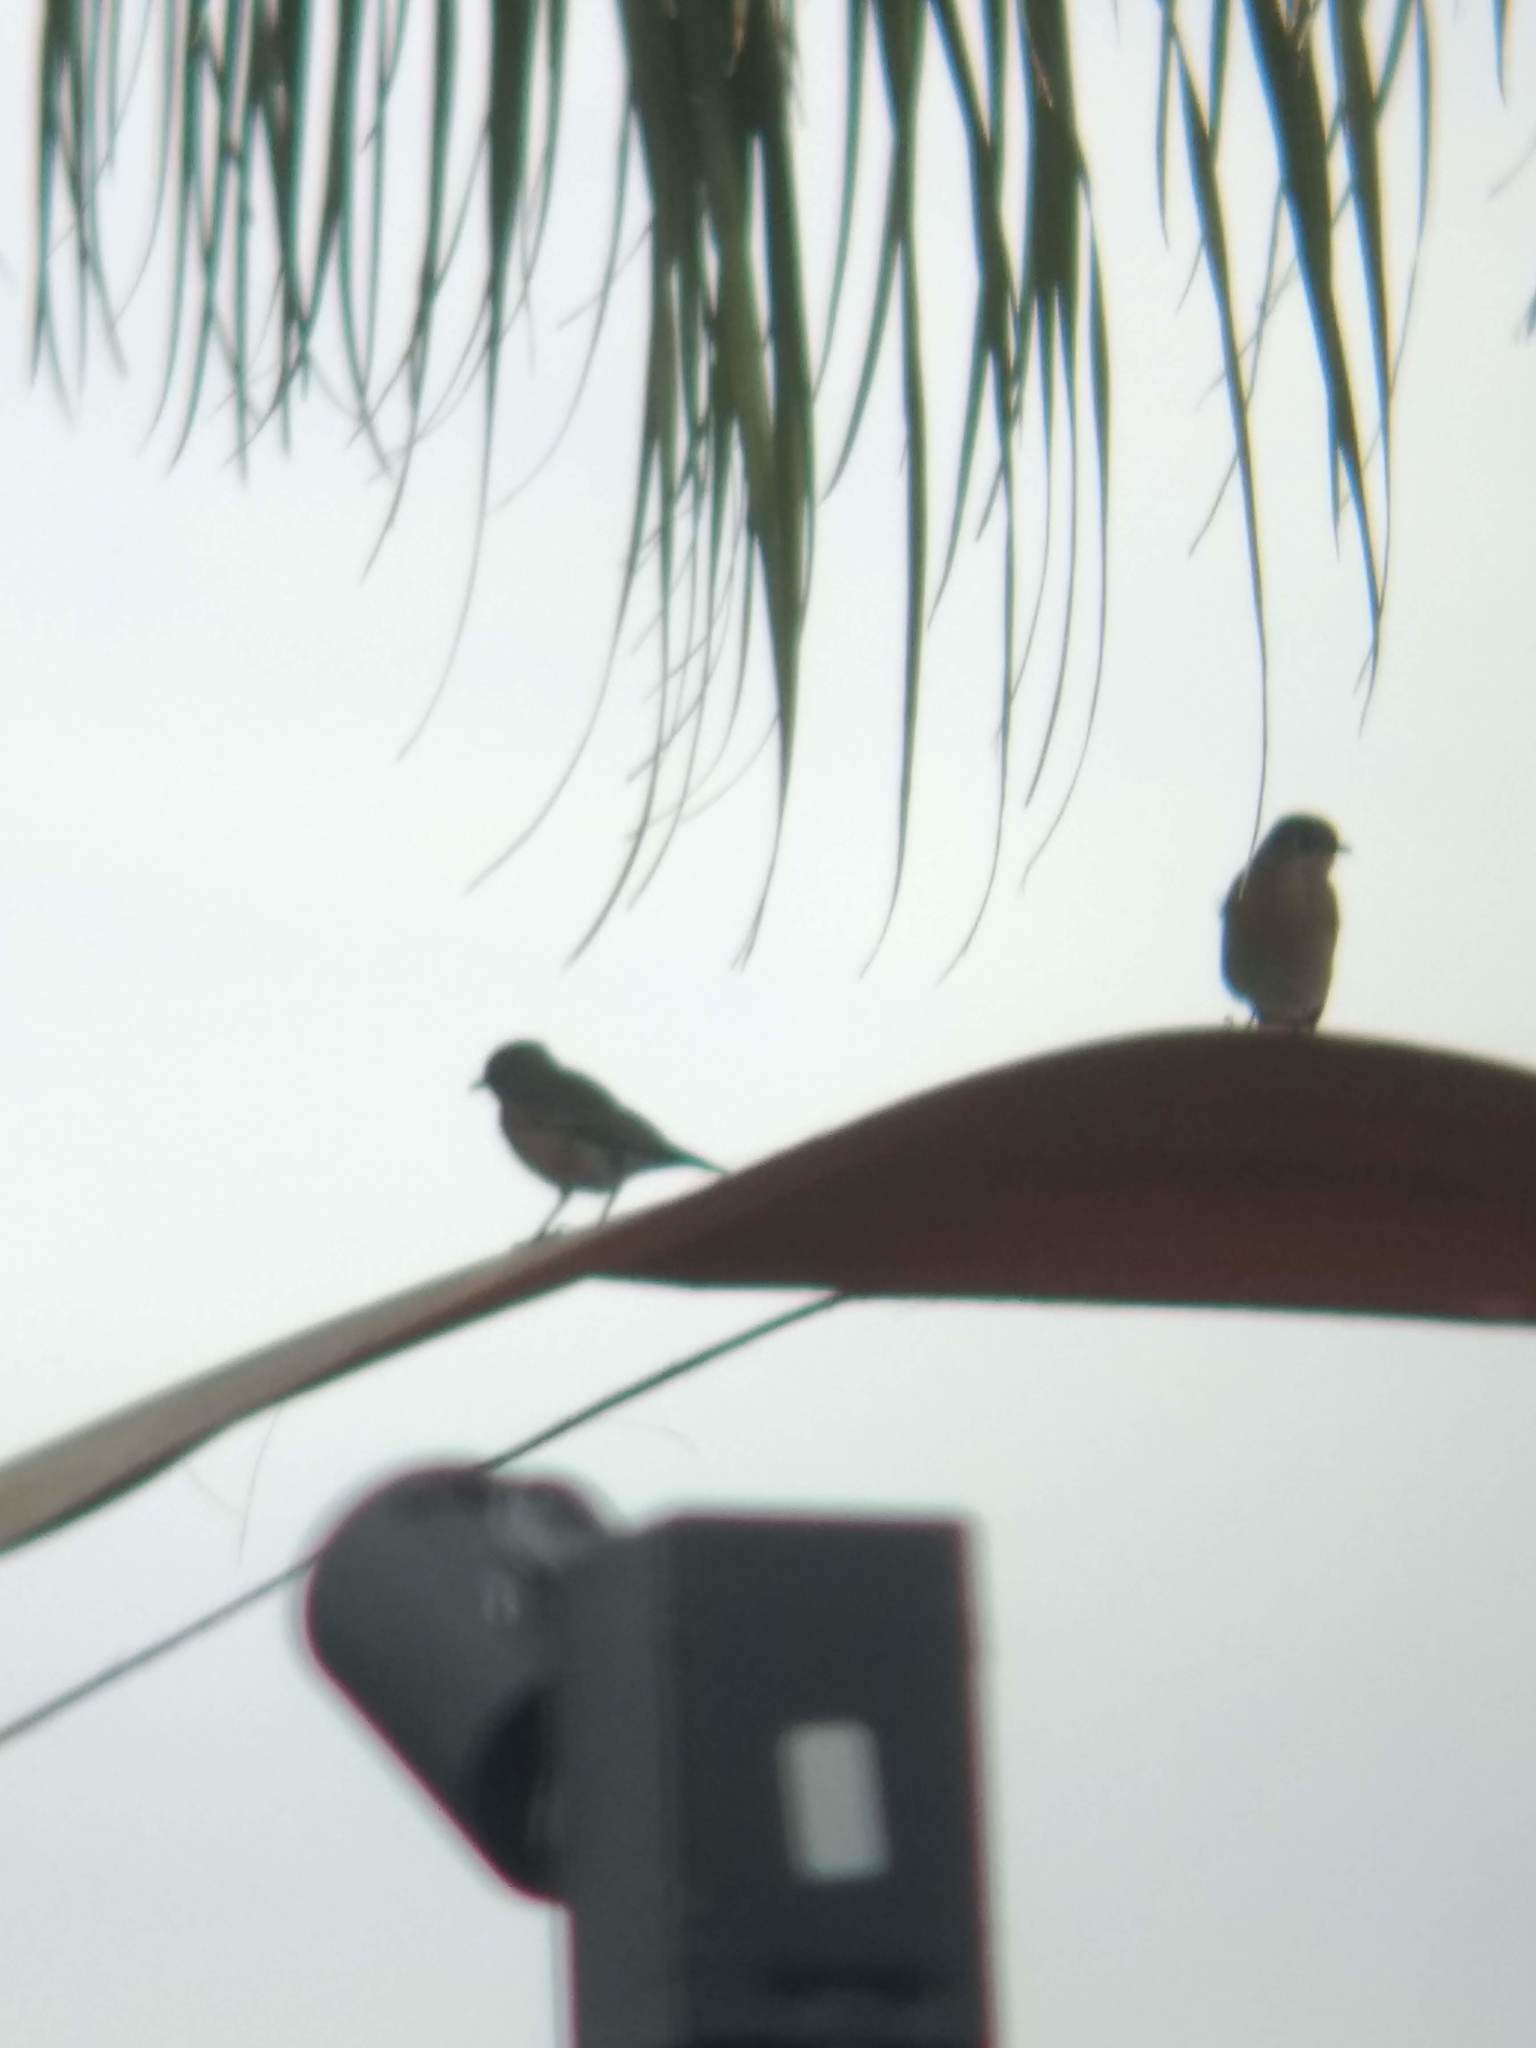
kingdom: Animalia
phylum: Chordata
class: Aves
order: Passeriformes
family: Turdidae
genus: Sialia
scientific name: Sialia mexicana
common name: Western bluebird
